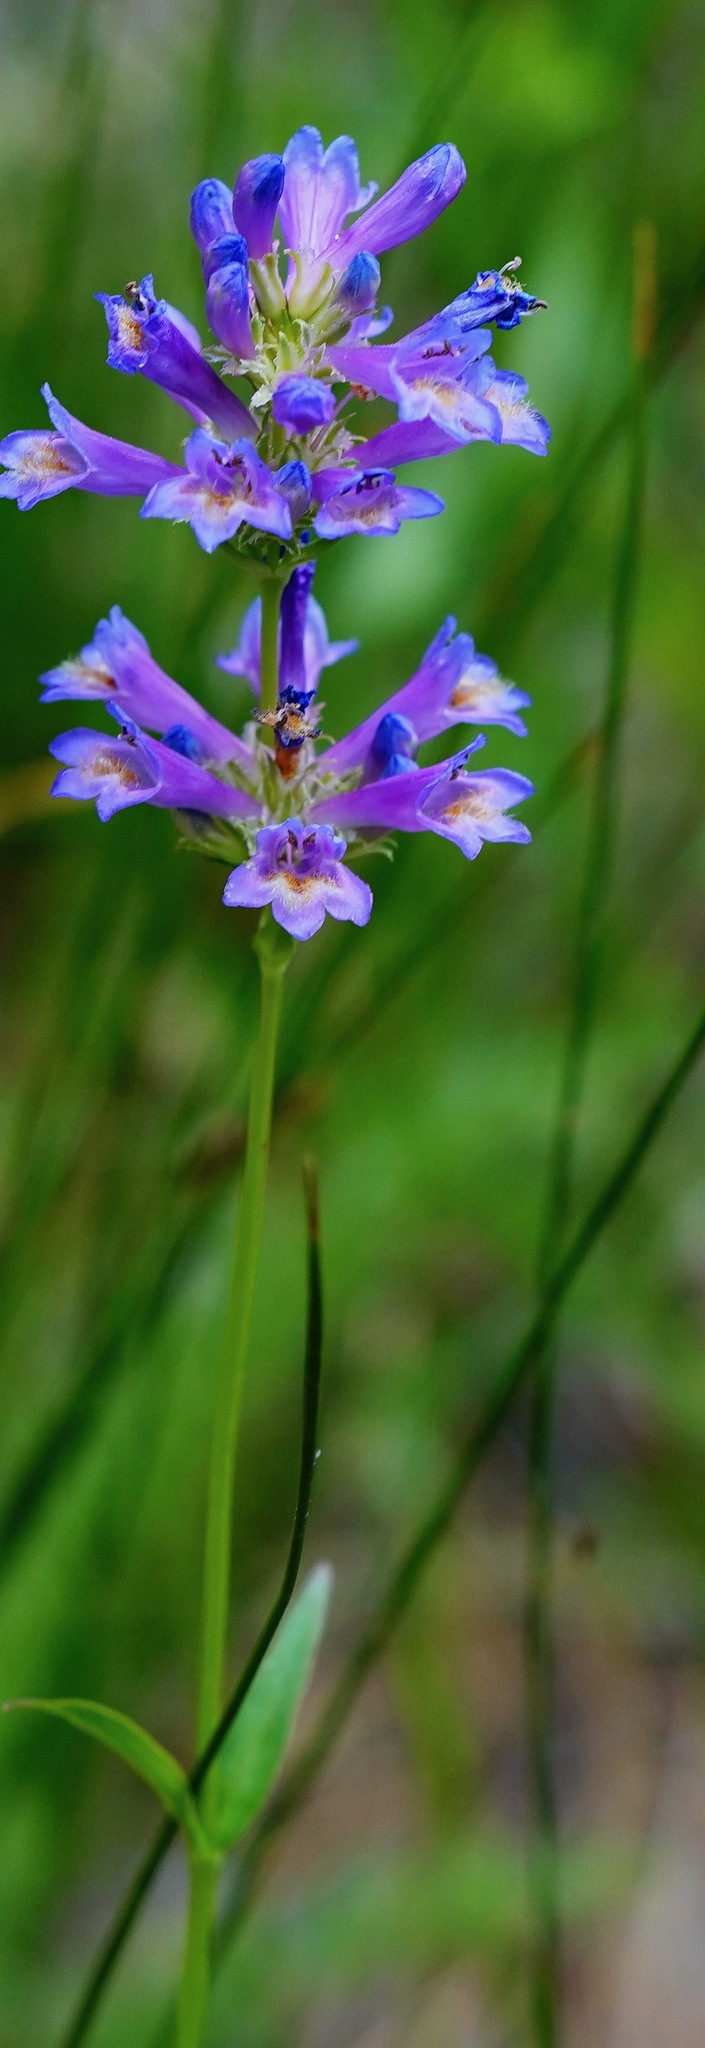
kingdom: Plantae
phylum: Tracheophyta
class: Magnoliopsida
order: Lamiales
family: Plantaginaceae
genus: Penstemon
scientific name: Penstemon rydbergii
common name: Rydberg's beardtongue
